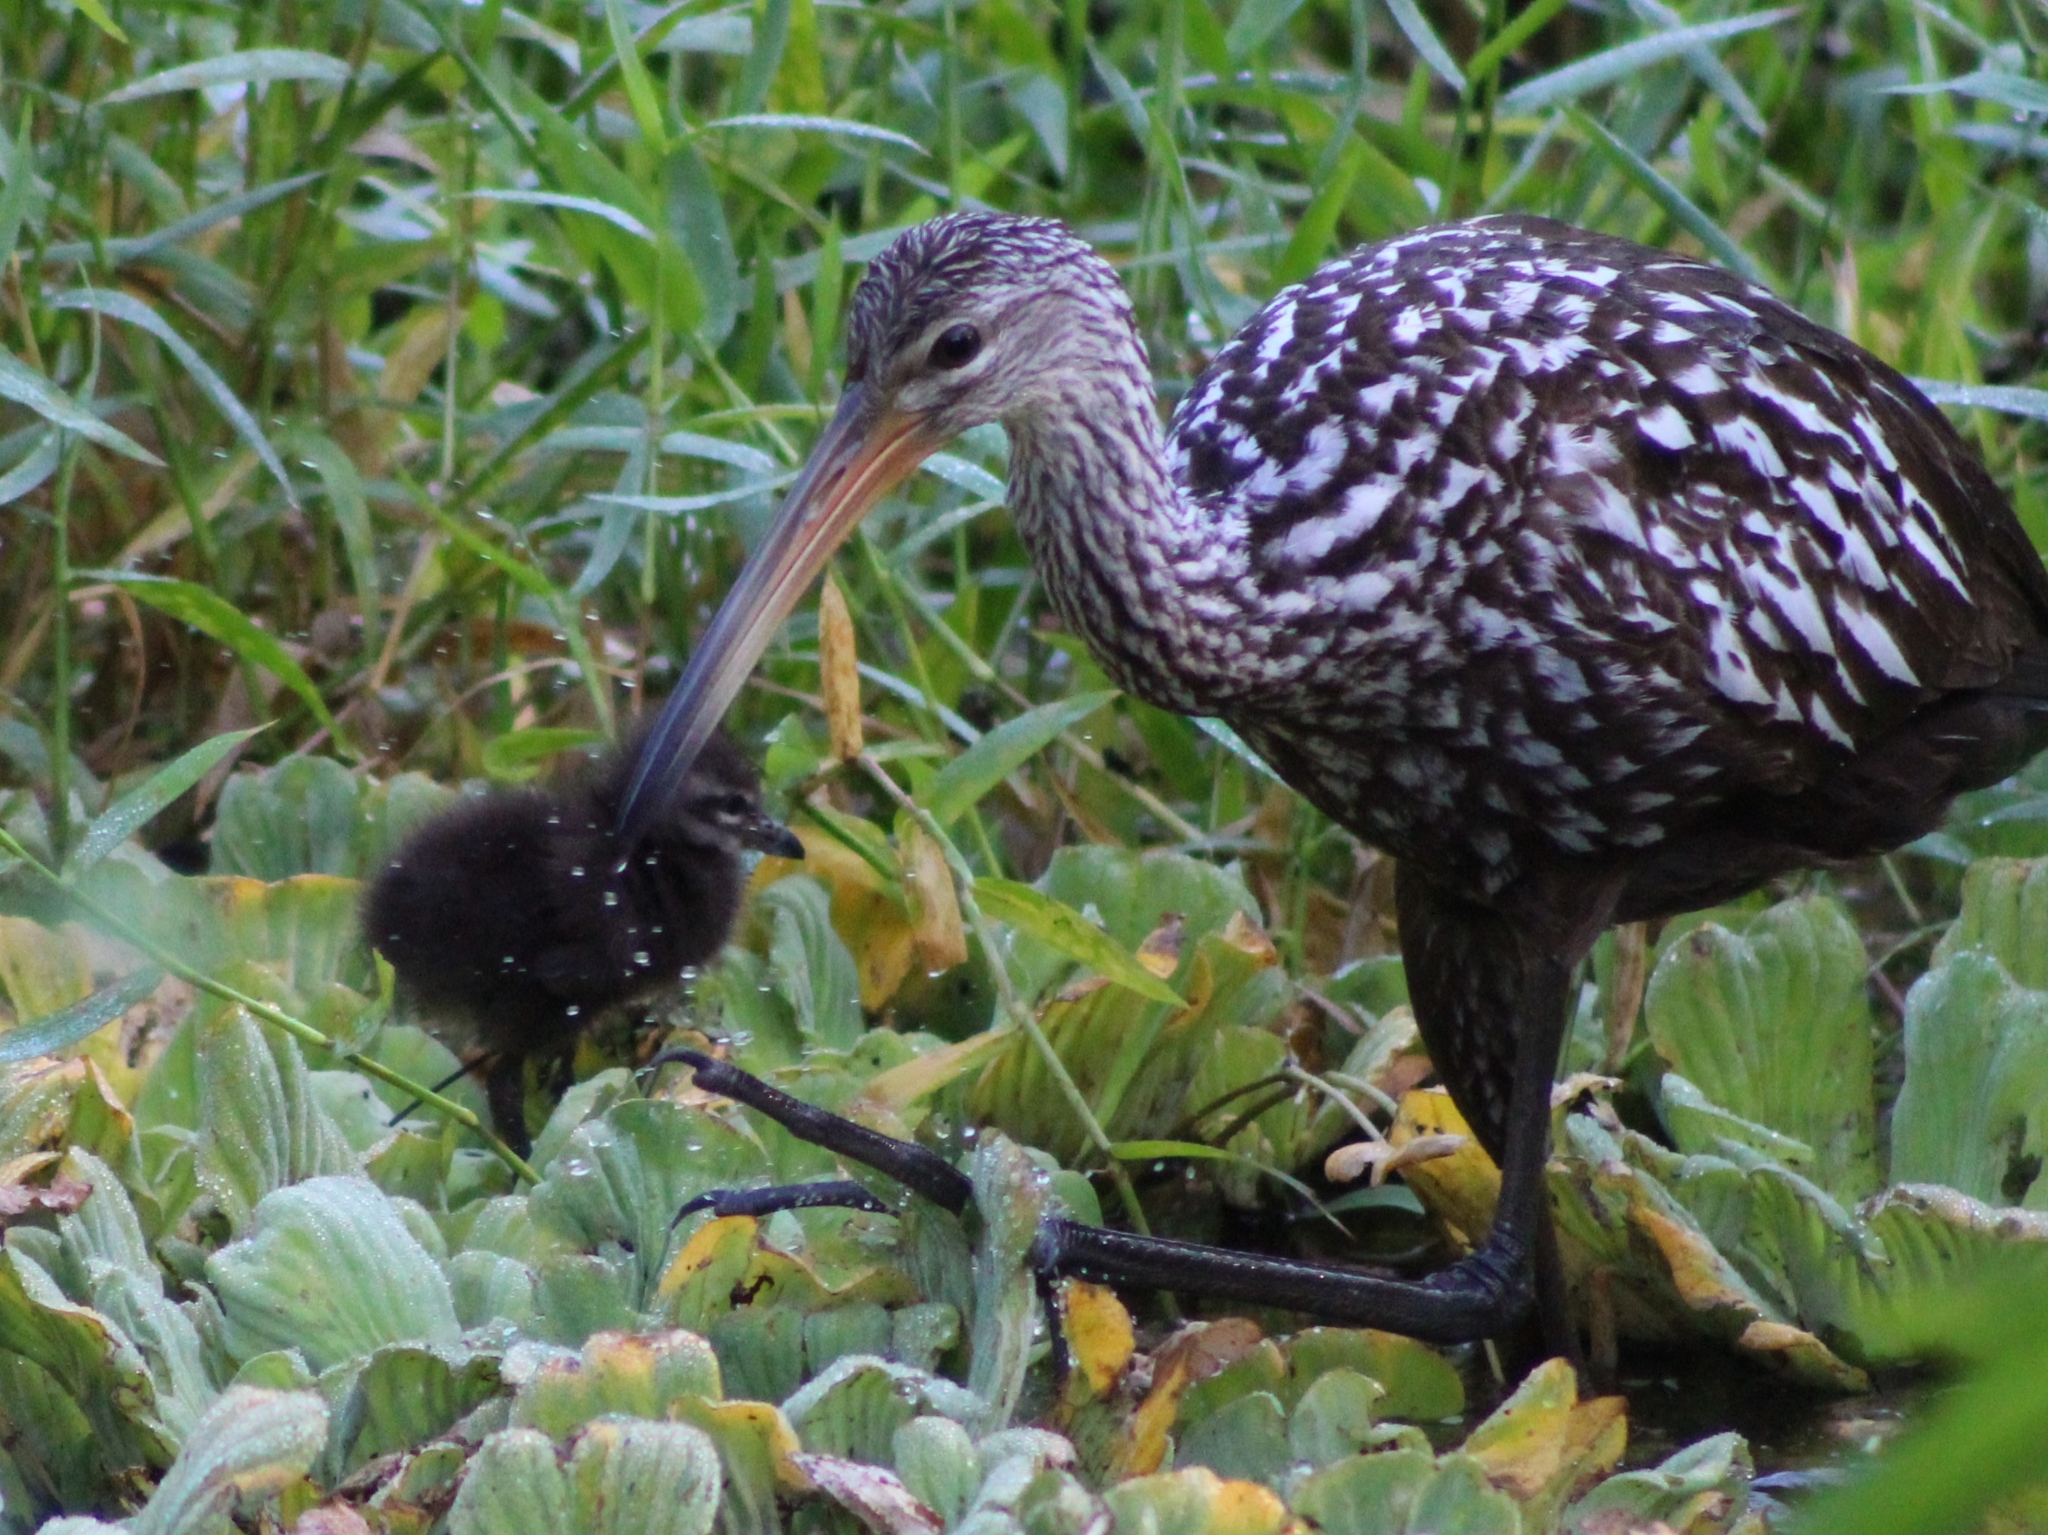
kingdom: Animalia
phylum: Chordata
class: Aves
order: Gruiformes
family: Aramidae
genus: Aramus
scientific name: Aramus guarauna
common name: Limpkin
